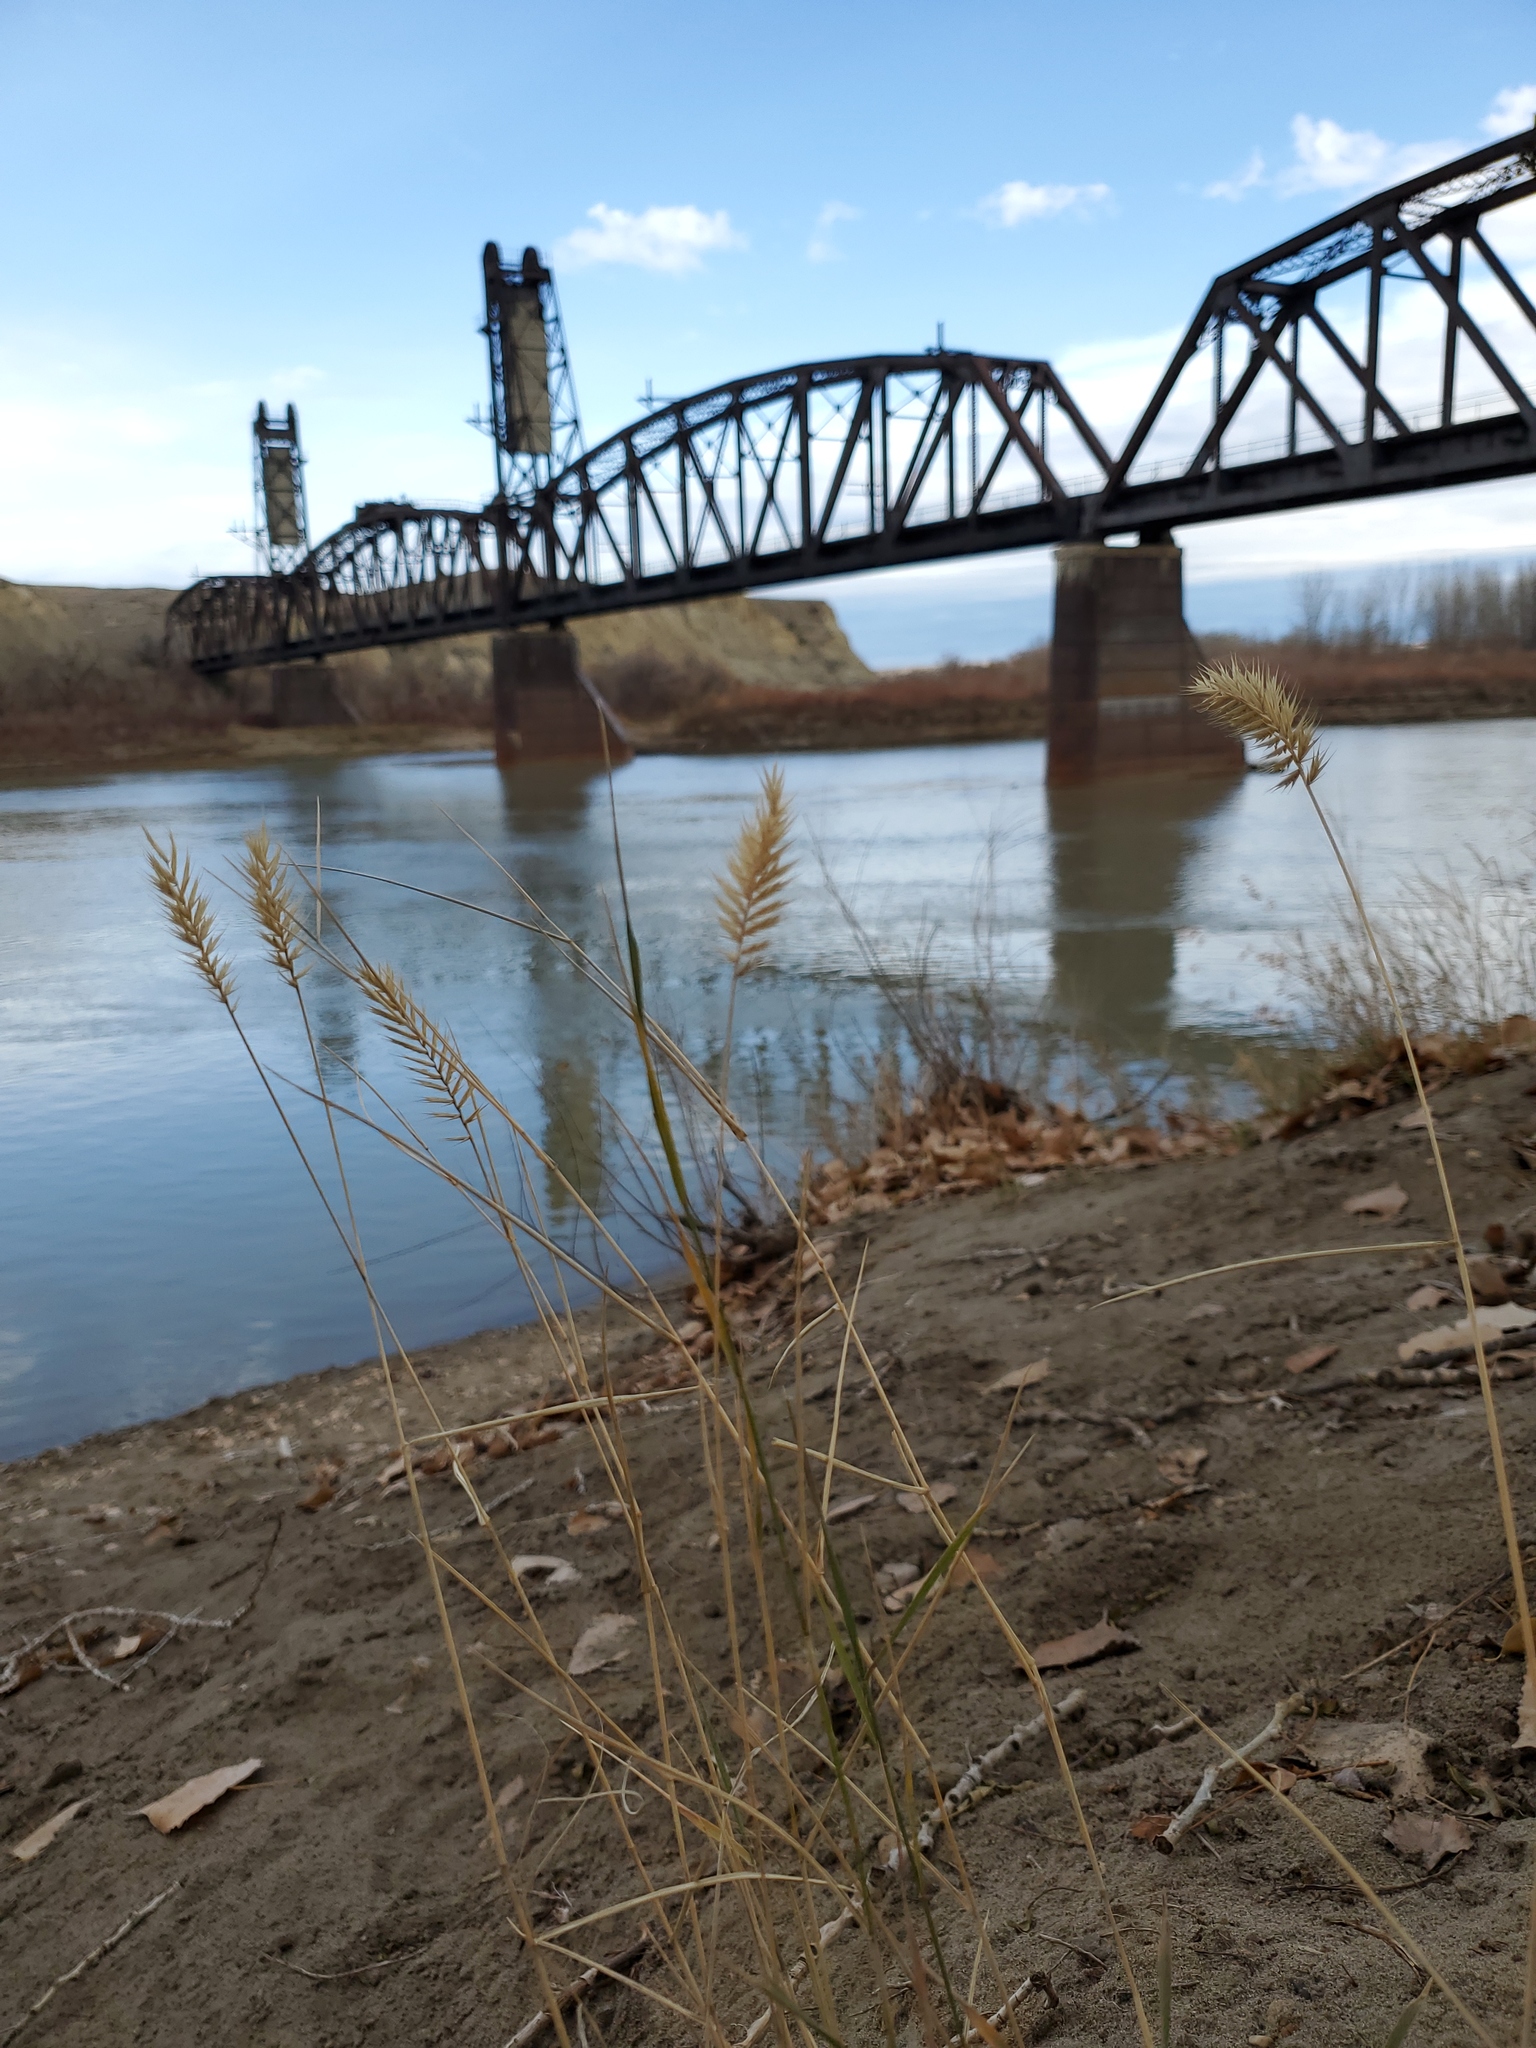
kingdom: Plantae
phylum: Tracheophyta
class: Liliopsida
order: Poales
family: Poaceae
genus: Agropyron
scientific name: Agropyron cristatum
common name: Crested wheatgrass
